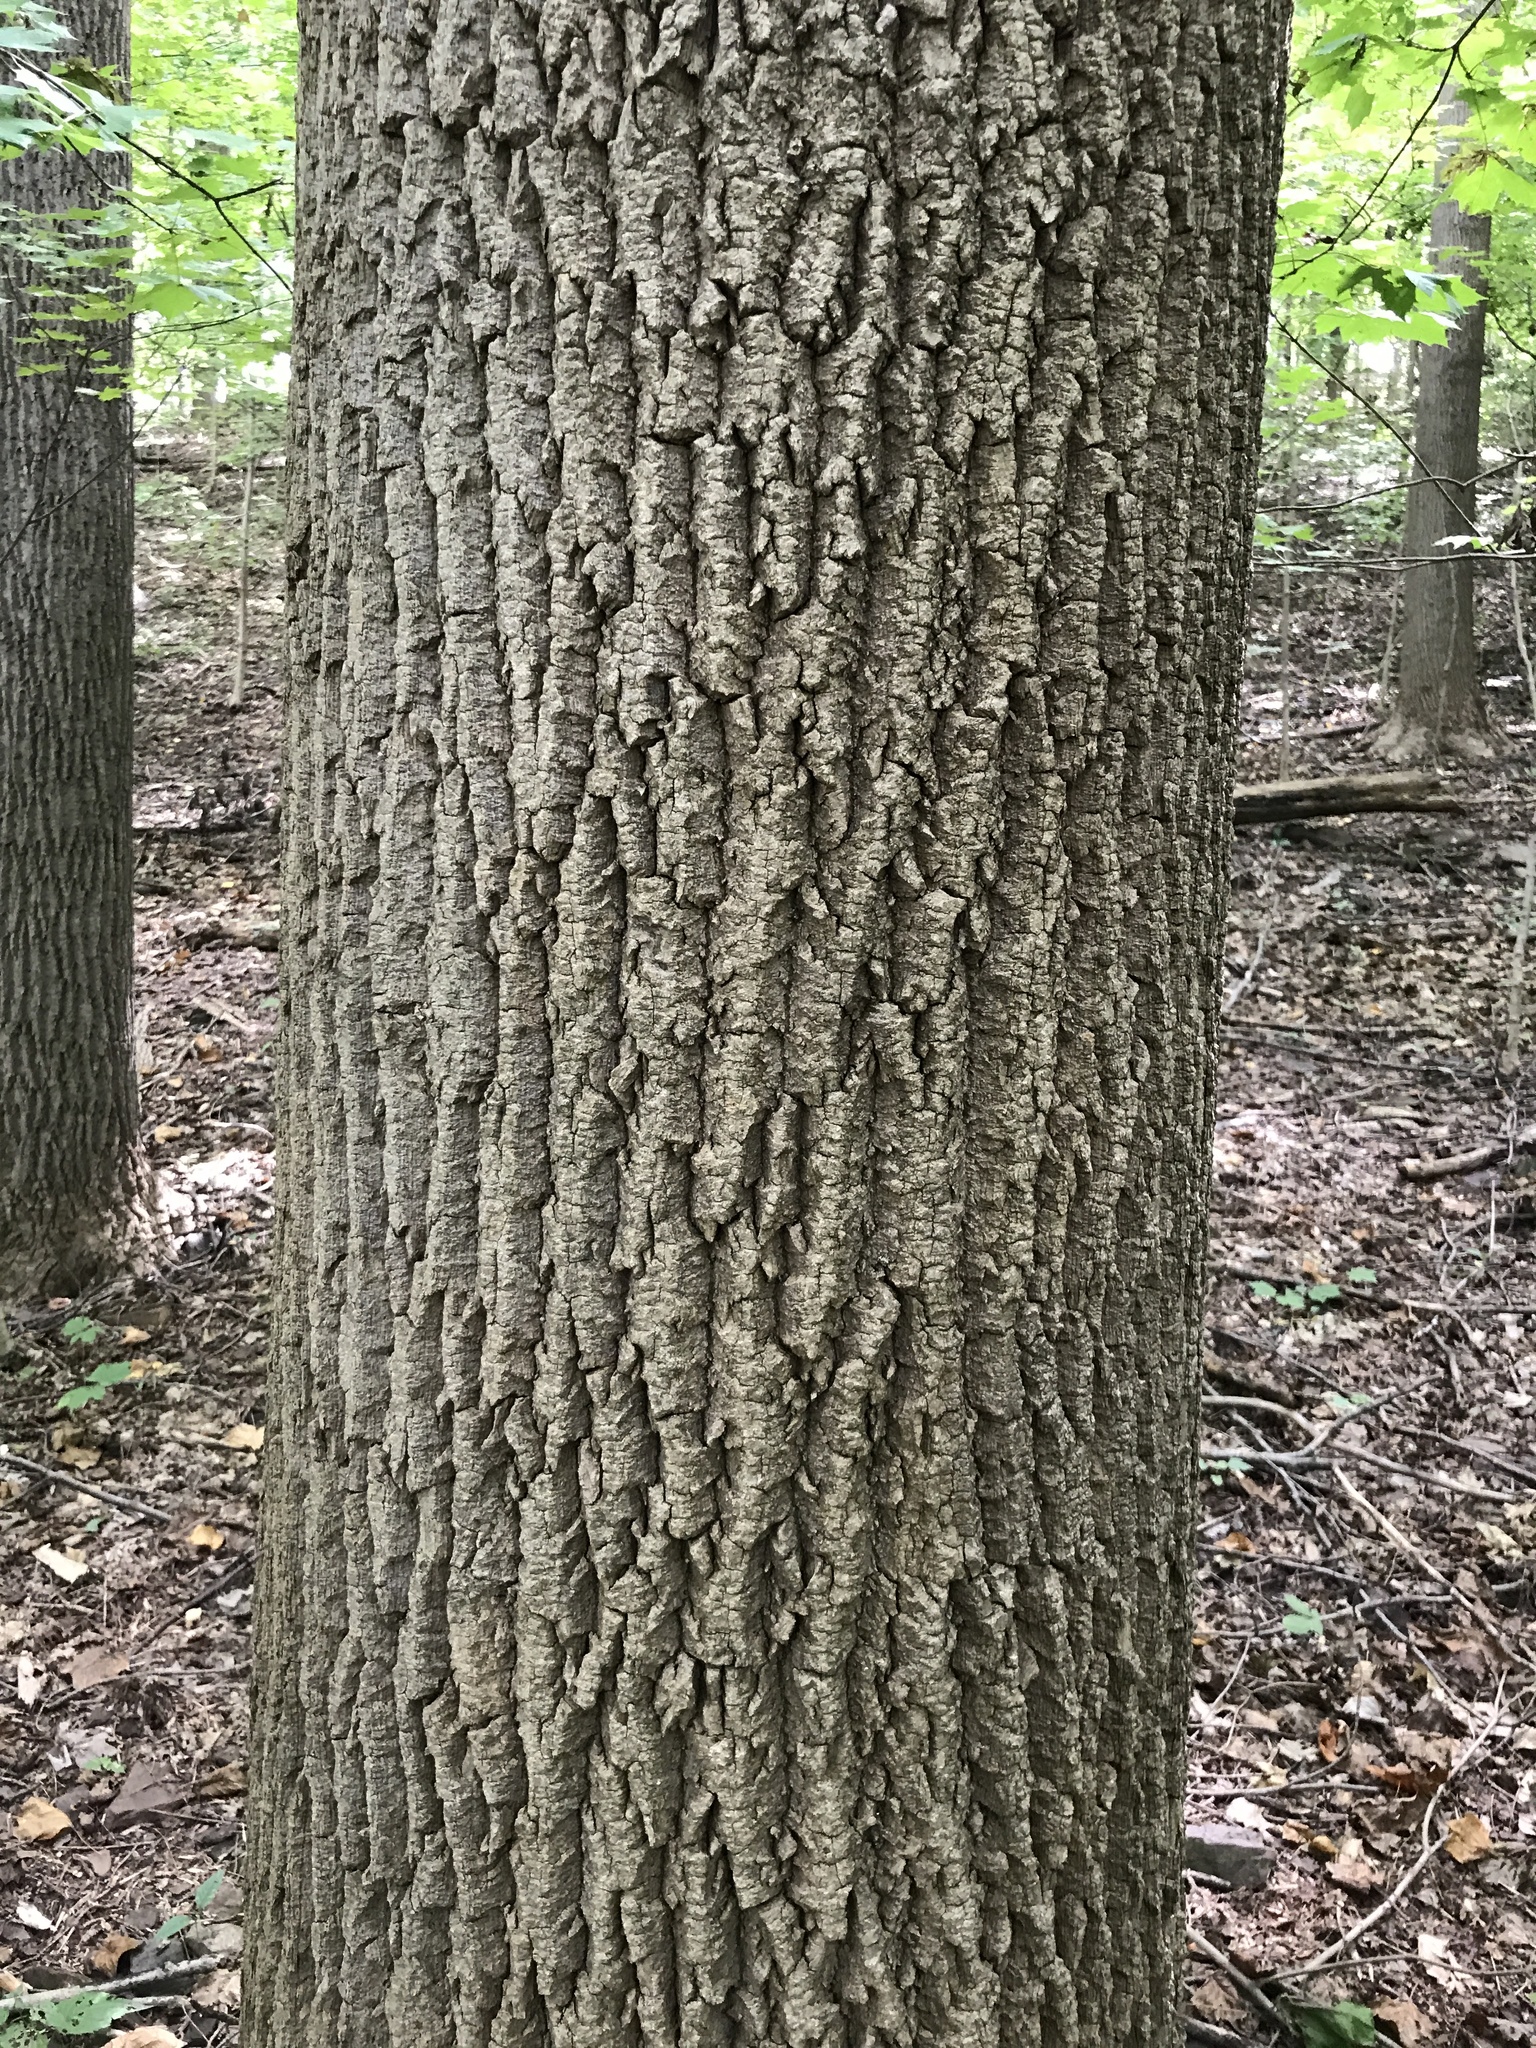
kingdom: Plantae
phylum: Tracheophyta
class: Magnoliopsida
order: Magnoliales
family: Magnoliaceae
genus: Liriodendron
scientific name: Liriodendron tulipifera
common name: Tulip tree
